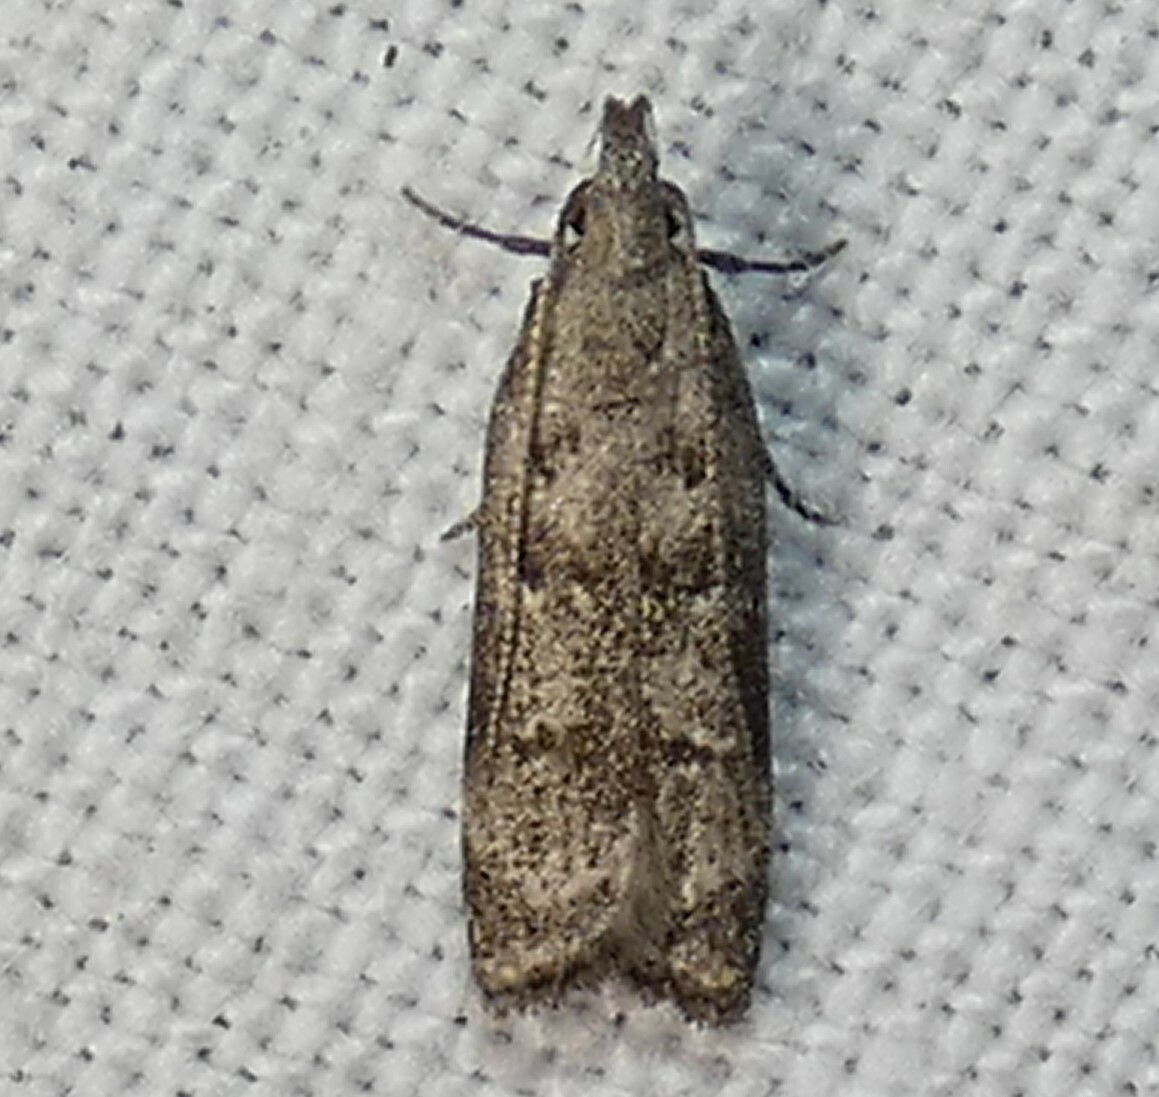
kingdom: Animalia
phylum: Arthropoda
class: Insecta
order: Lepidoptera
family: Gelechiidae
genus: Dichomeris
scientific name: Dichomeris inversella
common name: Inverse dichomeris moth
